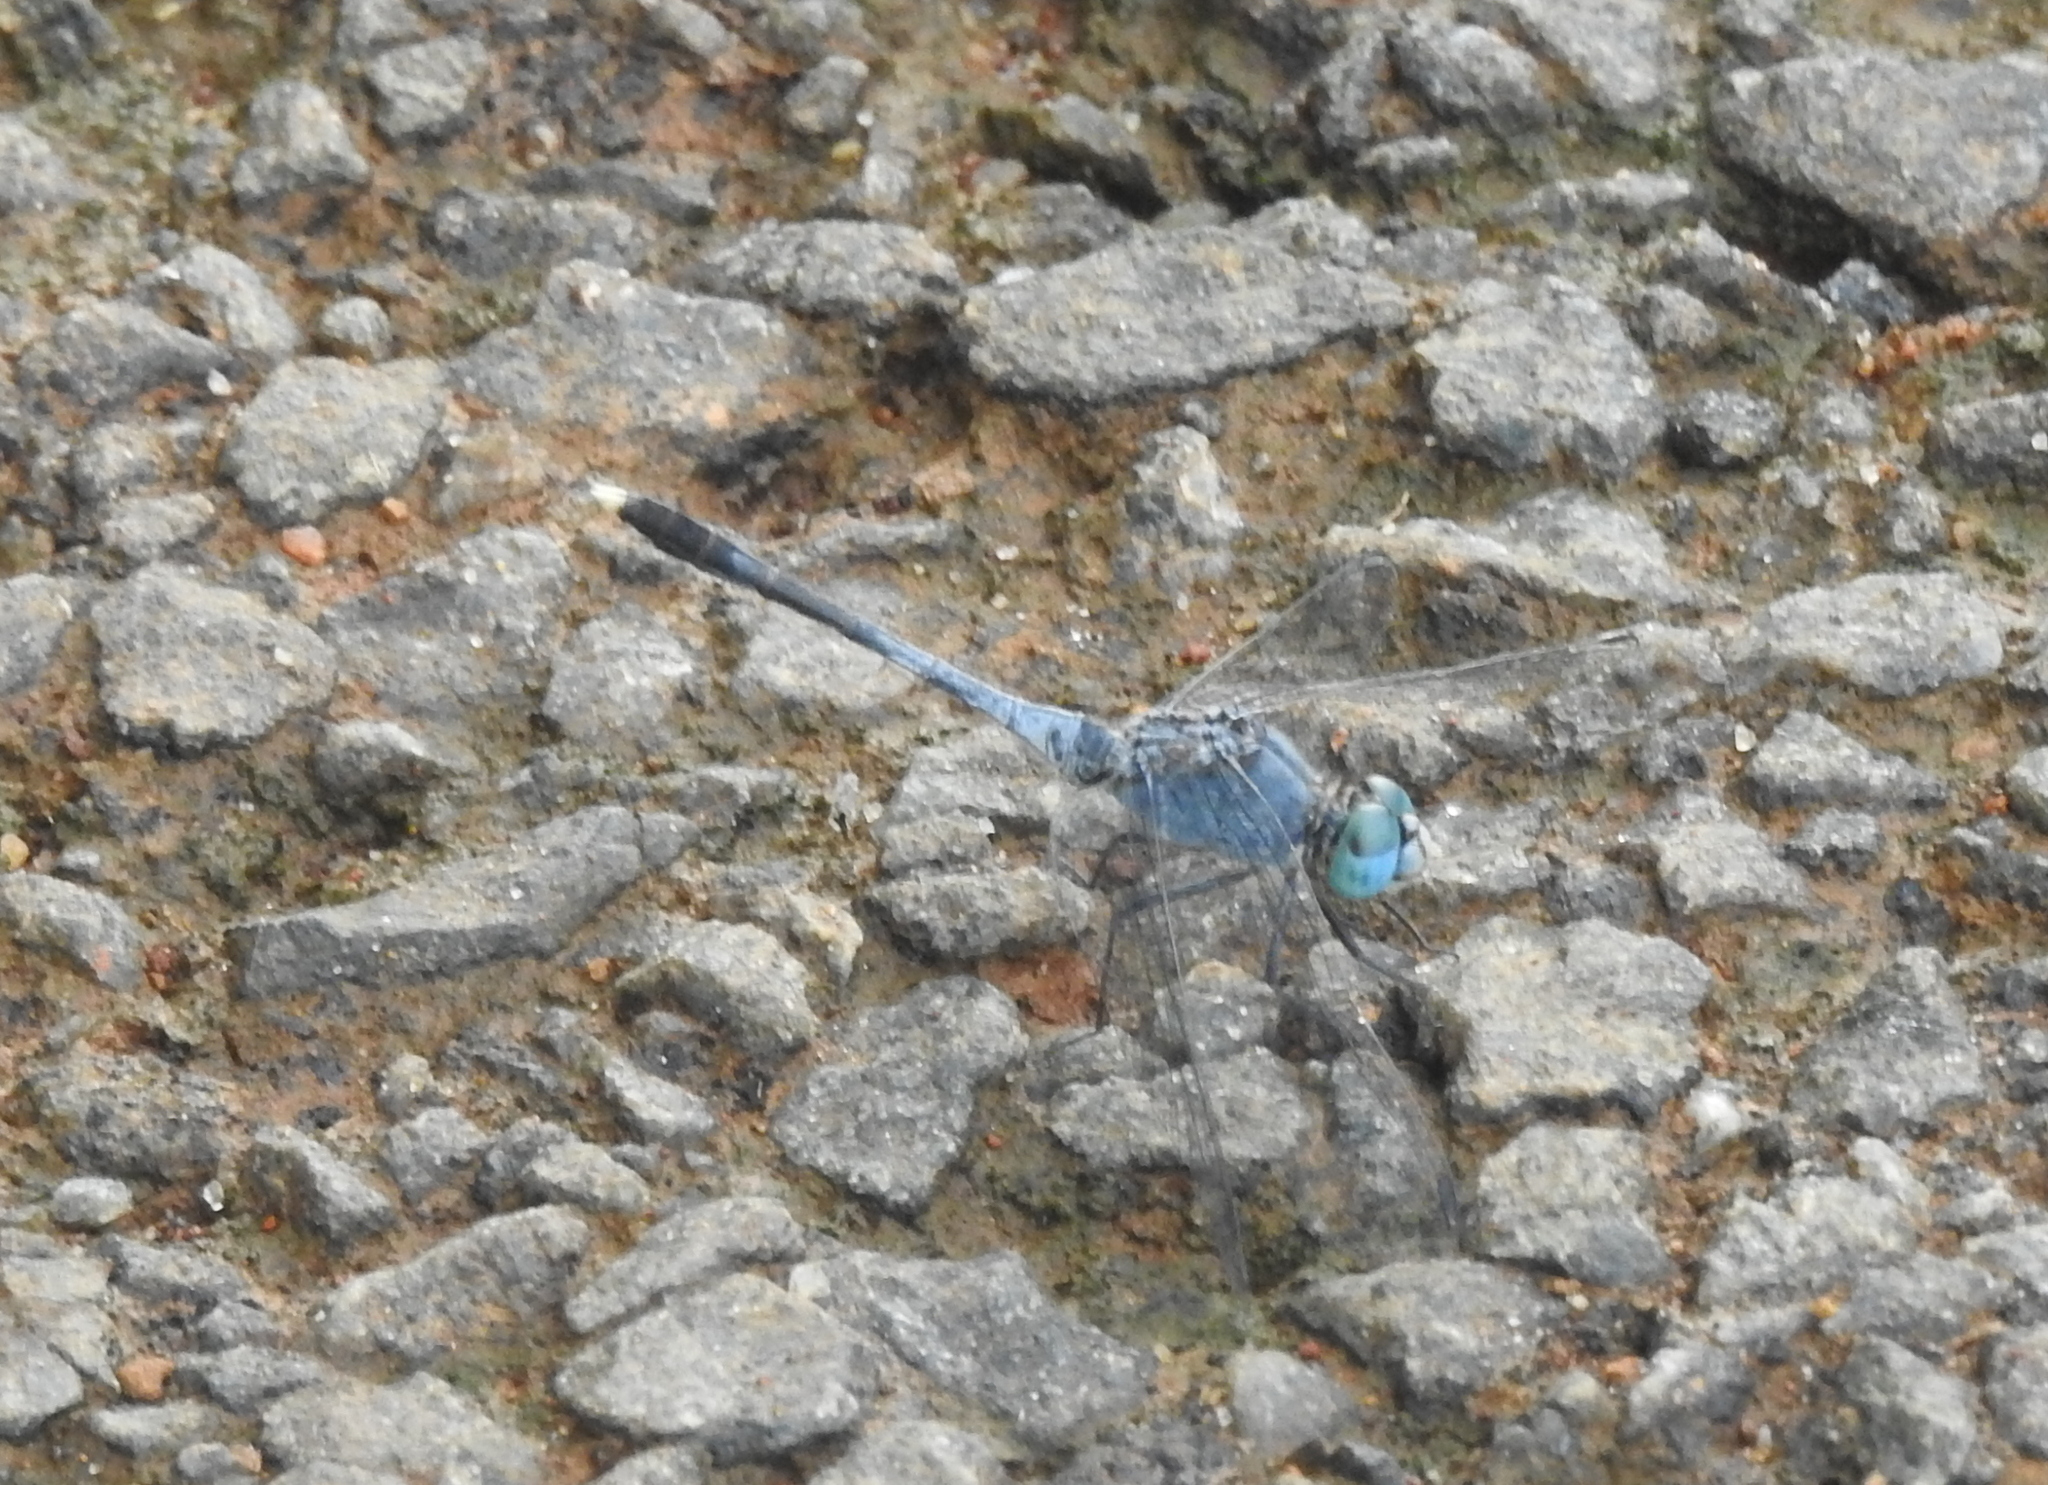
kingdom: Animalia
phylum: Arthropoda
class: Insecta
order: Odonata
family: Libellulidae
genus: Diplacodes
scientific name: Diplacodes trivialis
